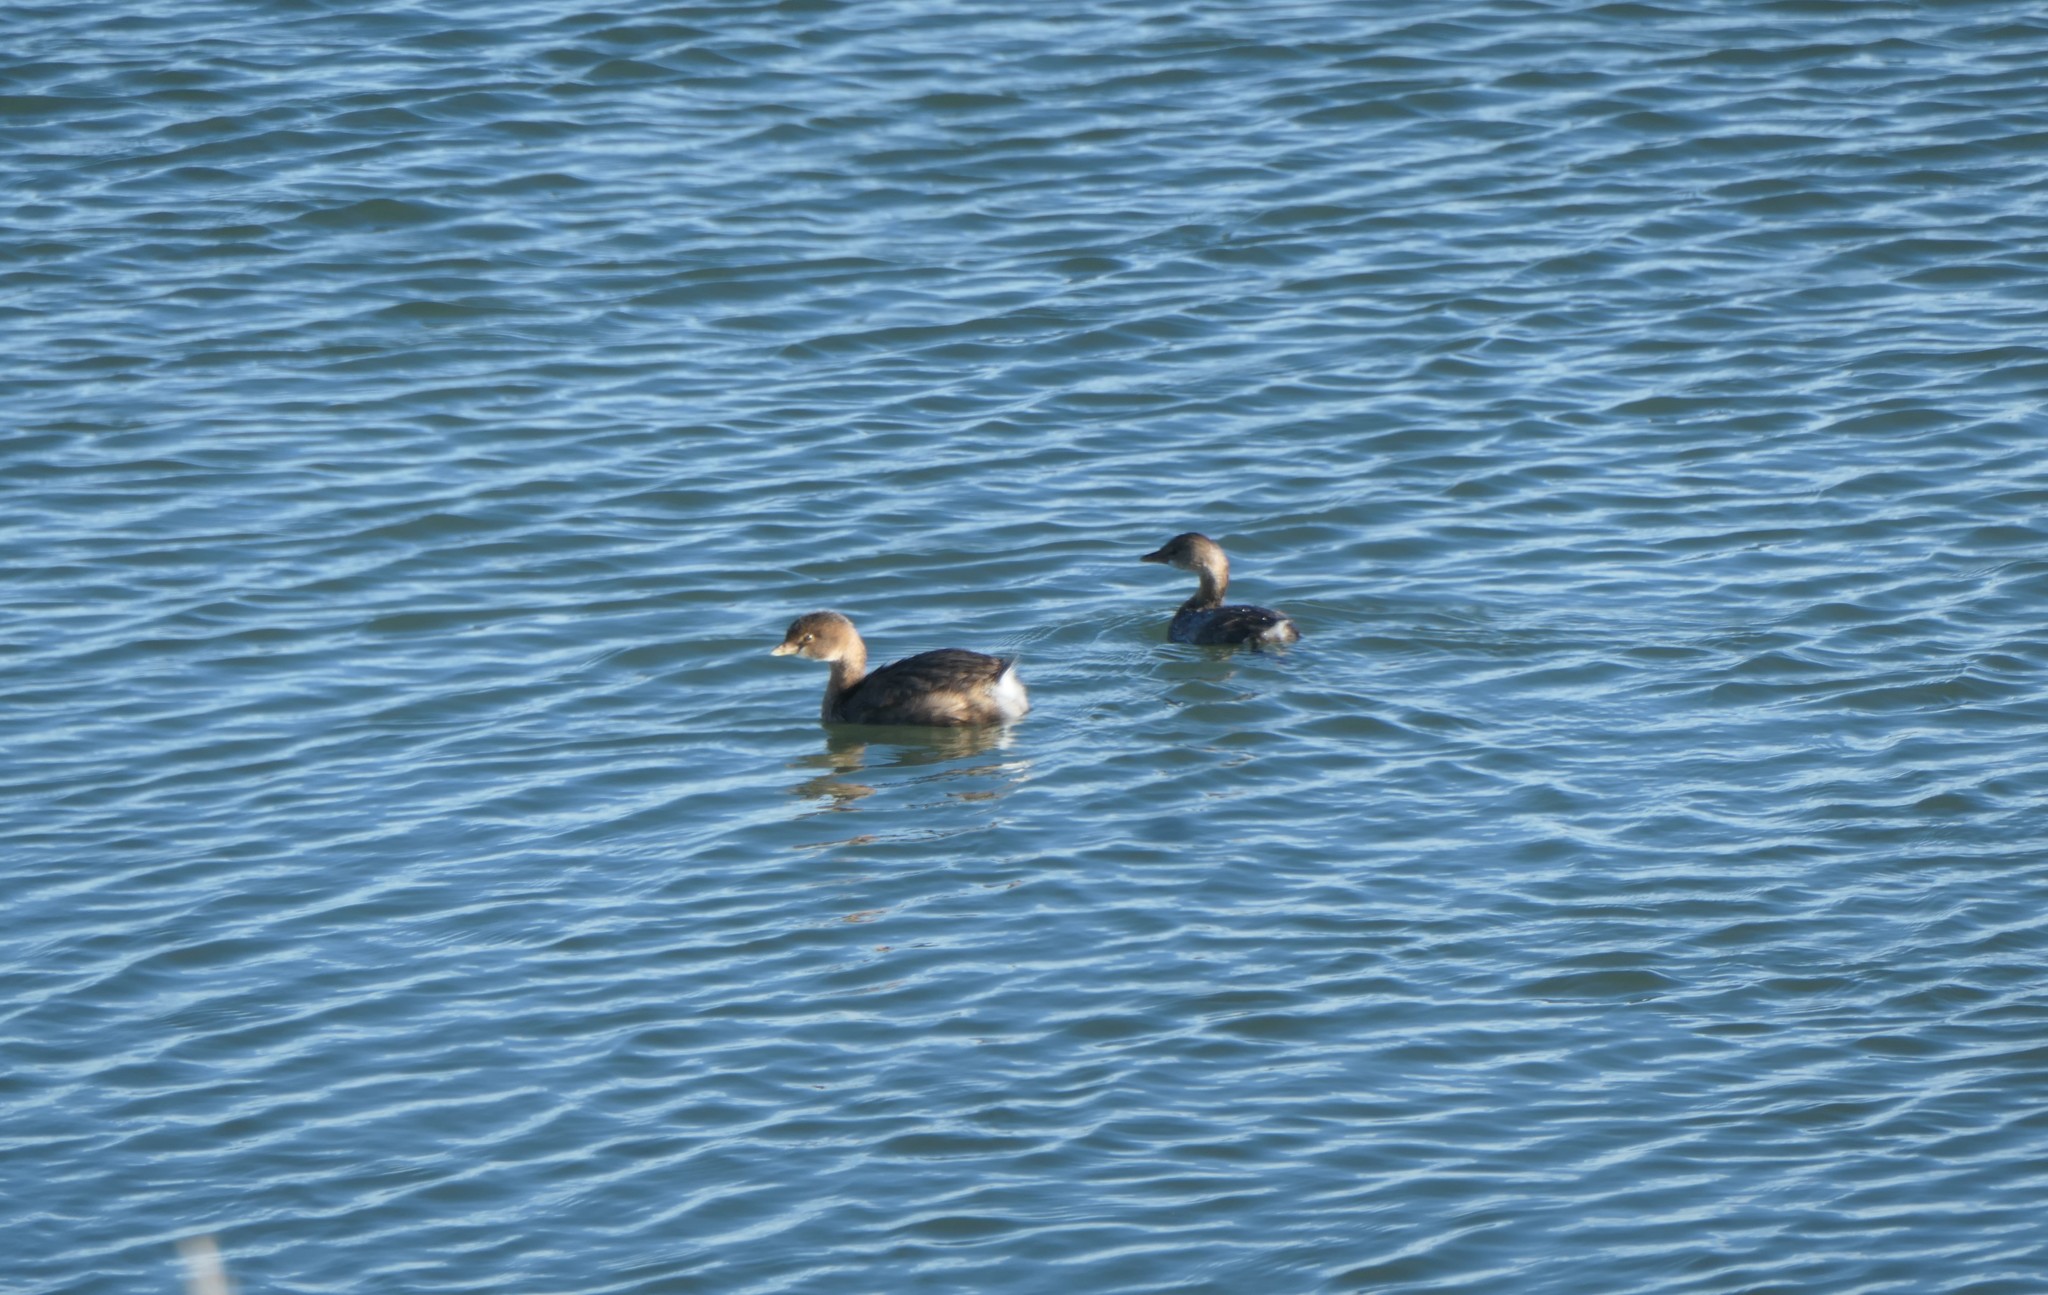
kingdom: Animalia
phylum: Chordata
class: Aves
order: Podicipediformes
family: Podicipedidae
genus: Podilymbus
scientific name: Podilymbus podiceps
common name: Pied-billed grebe
